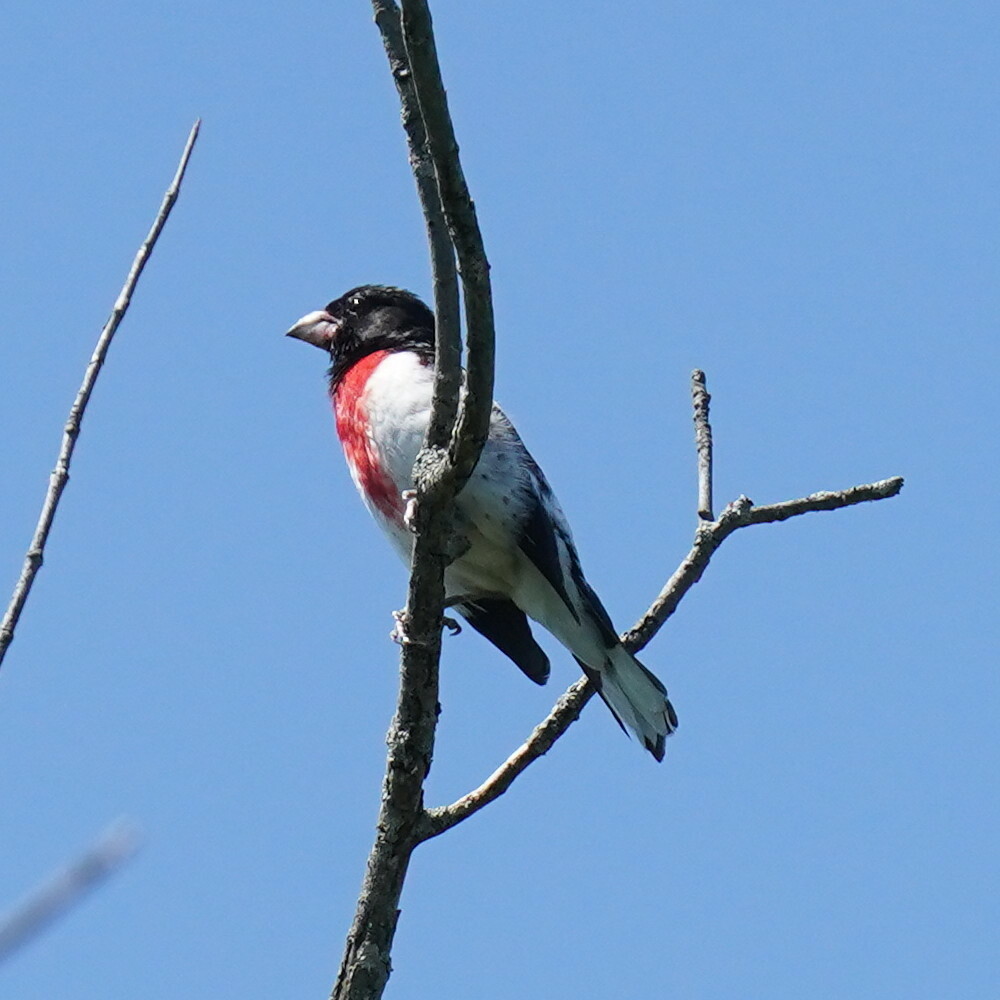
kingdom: Animalia
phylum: Chordata
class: Aves
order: Passeriformes
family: Cardinalidae
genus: Pheucticus
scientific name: Pheucticus ludovicianus
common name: Rose-breasted grosbeak
